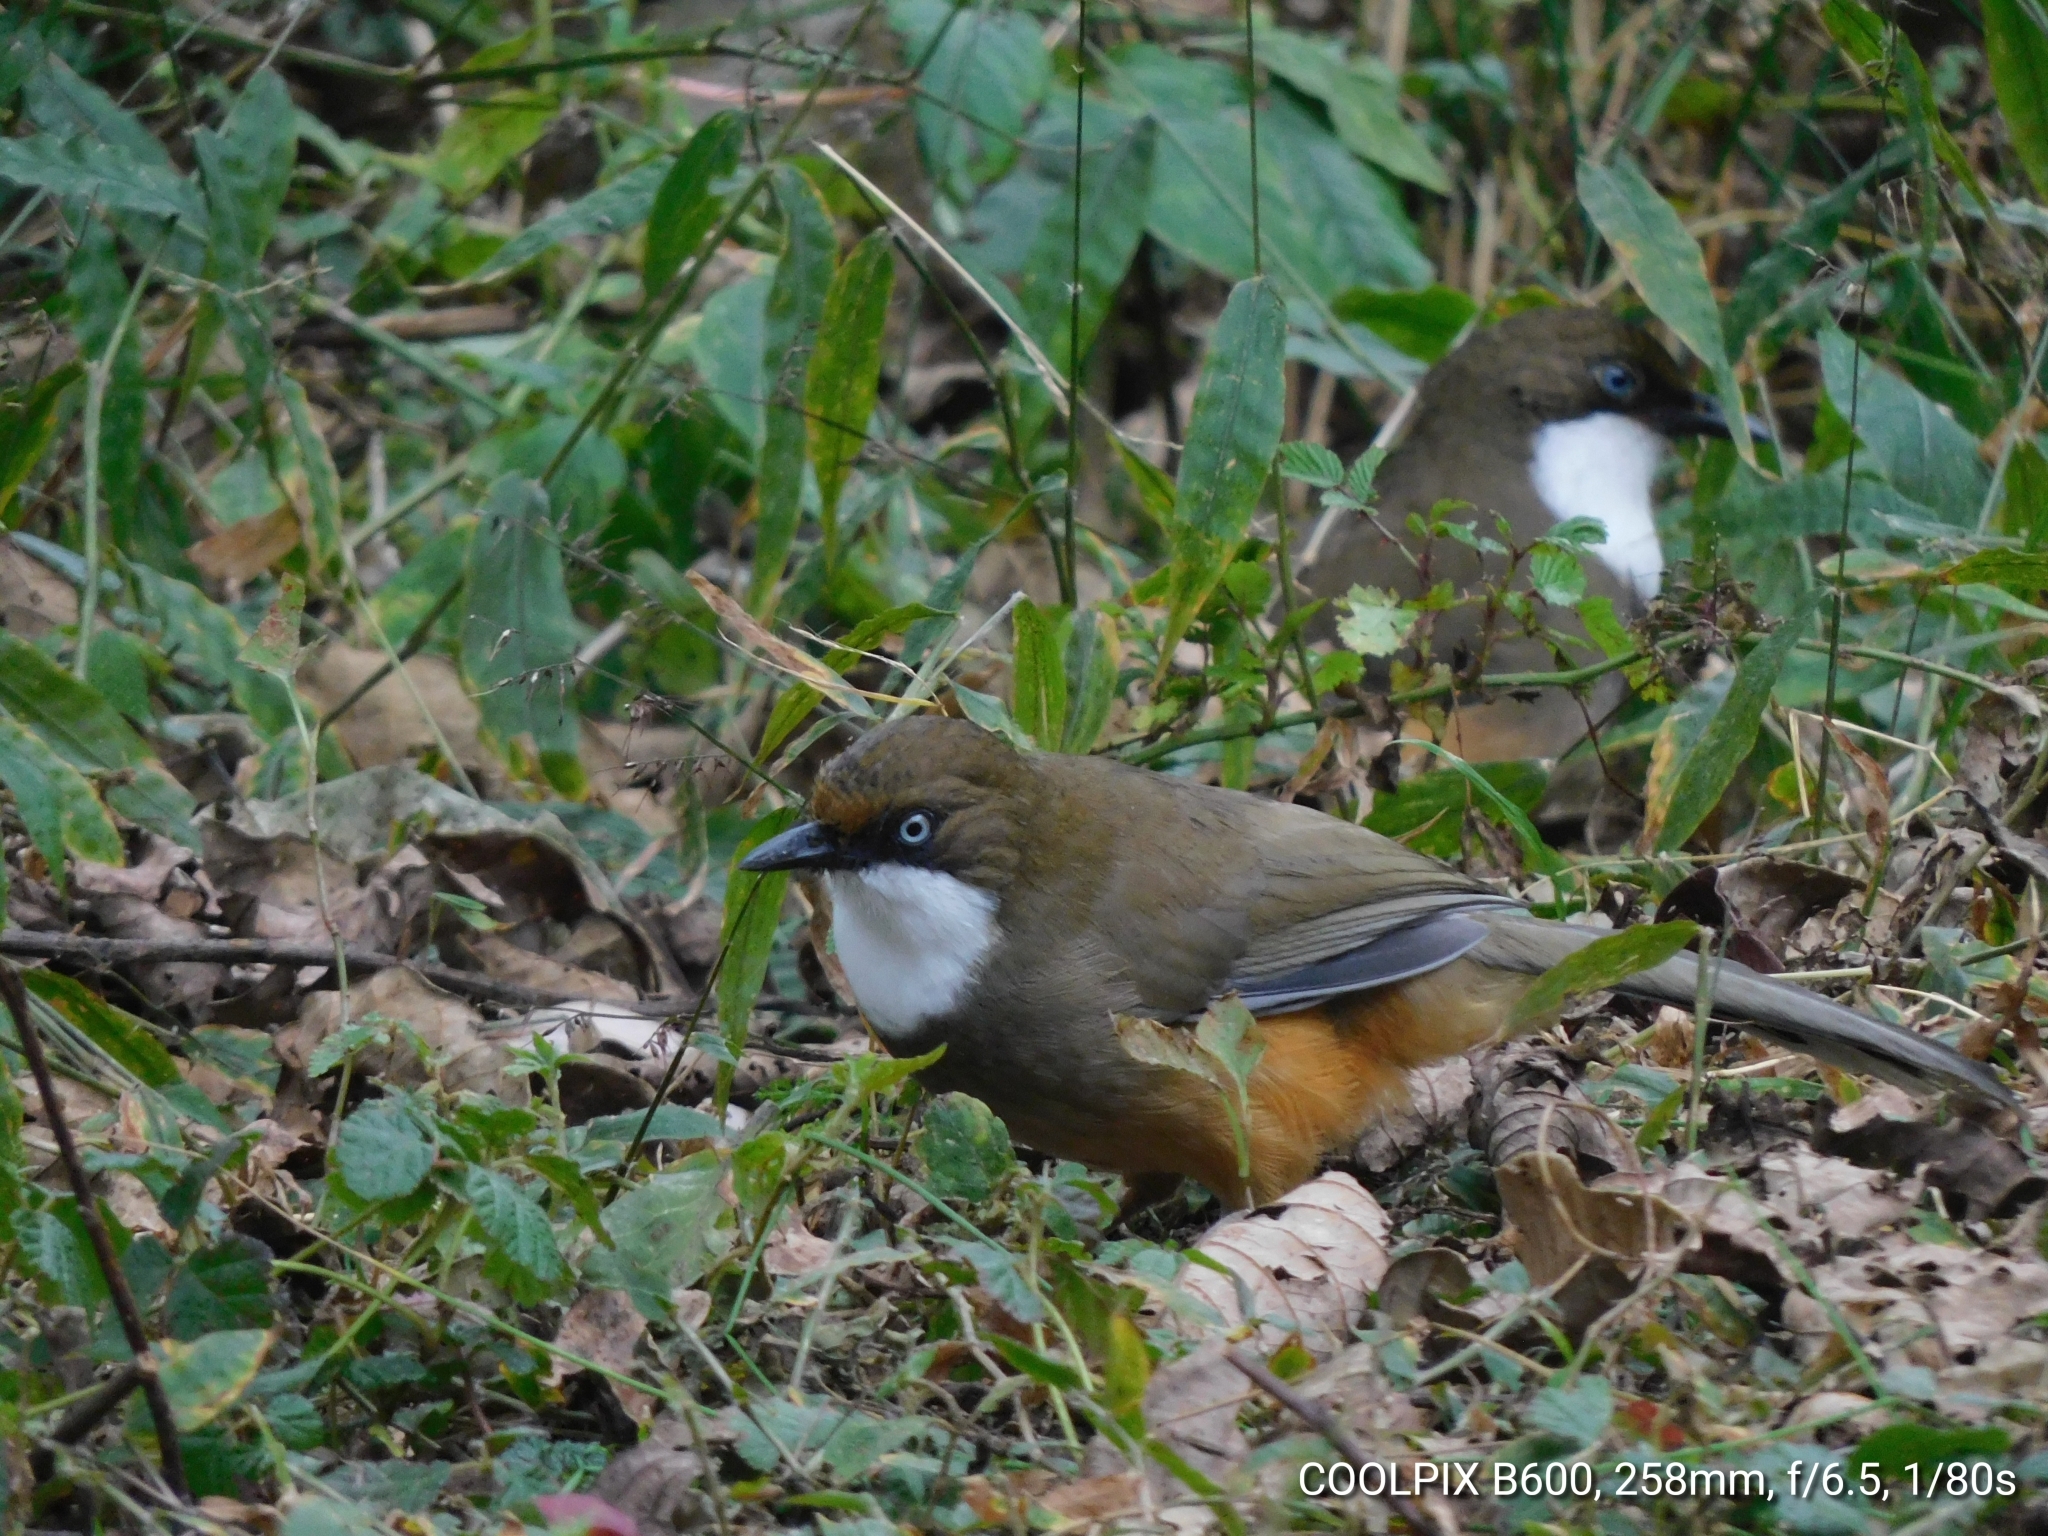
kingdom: Animalia
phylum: Chordata
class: Aves
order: Passeriformes
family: Leiothrichidae
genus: Garrulax
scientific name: Garrulax albogularis
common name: White-throated laughingthrush
